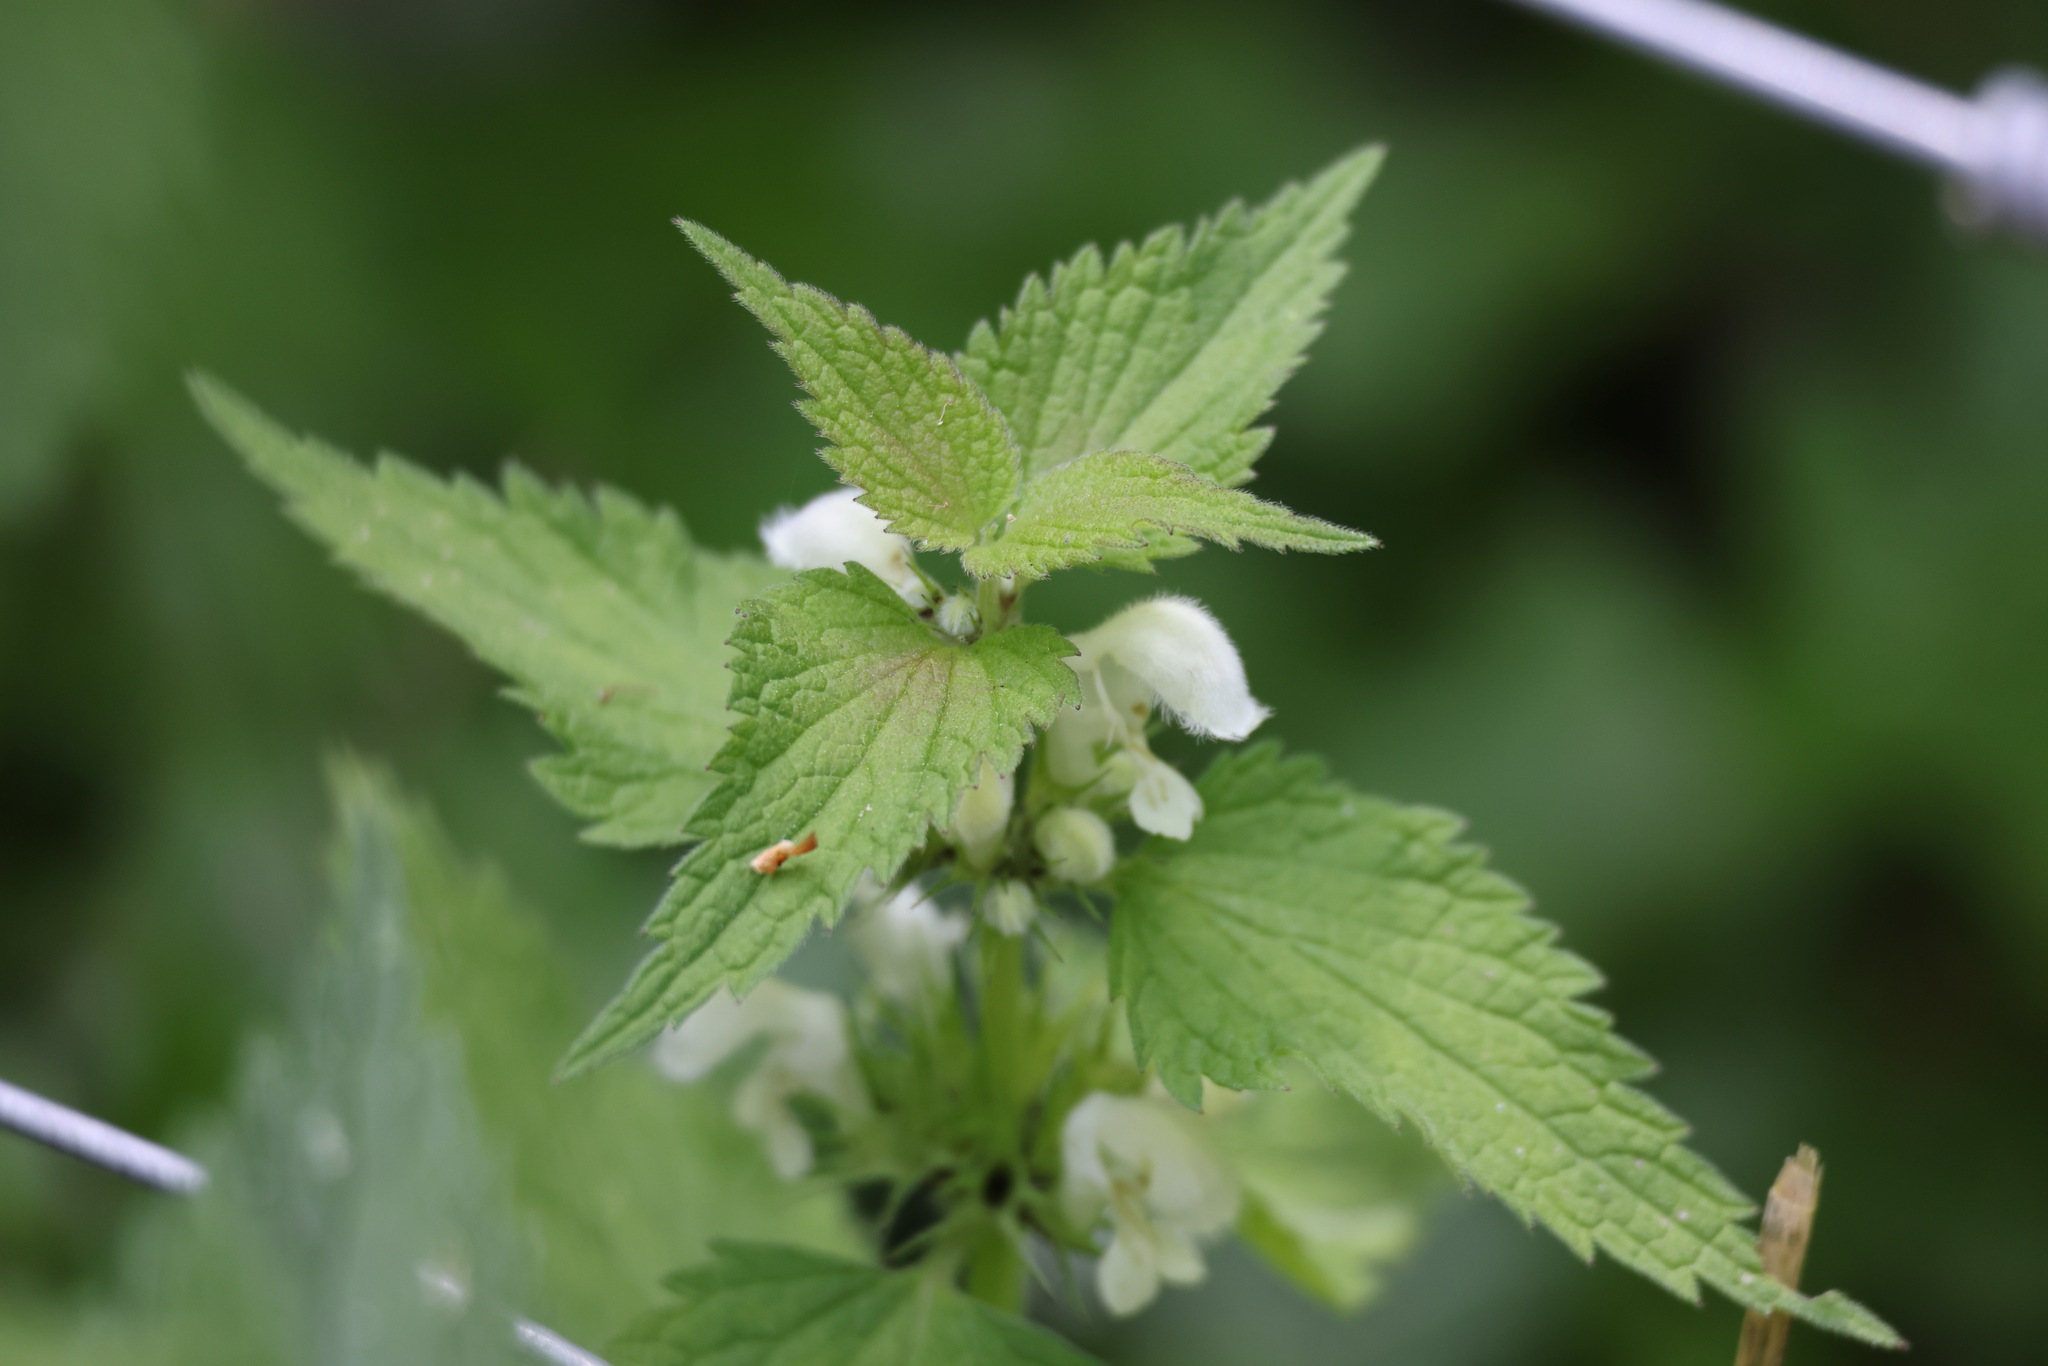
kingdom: Plantae
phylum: Tracheophyta
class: Magnoliopsida
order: Lamiales
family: Lamiaceae
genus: Lamium
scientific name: Lamium album
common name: White dead-nettle
